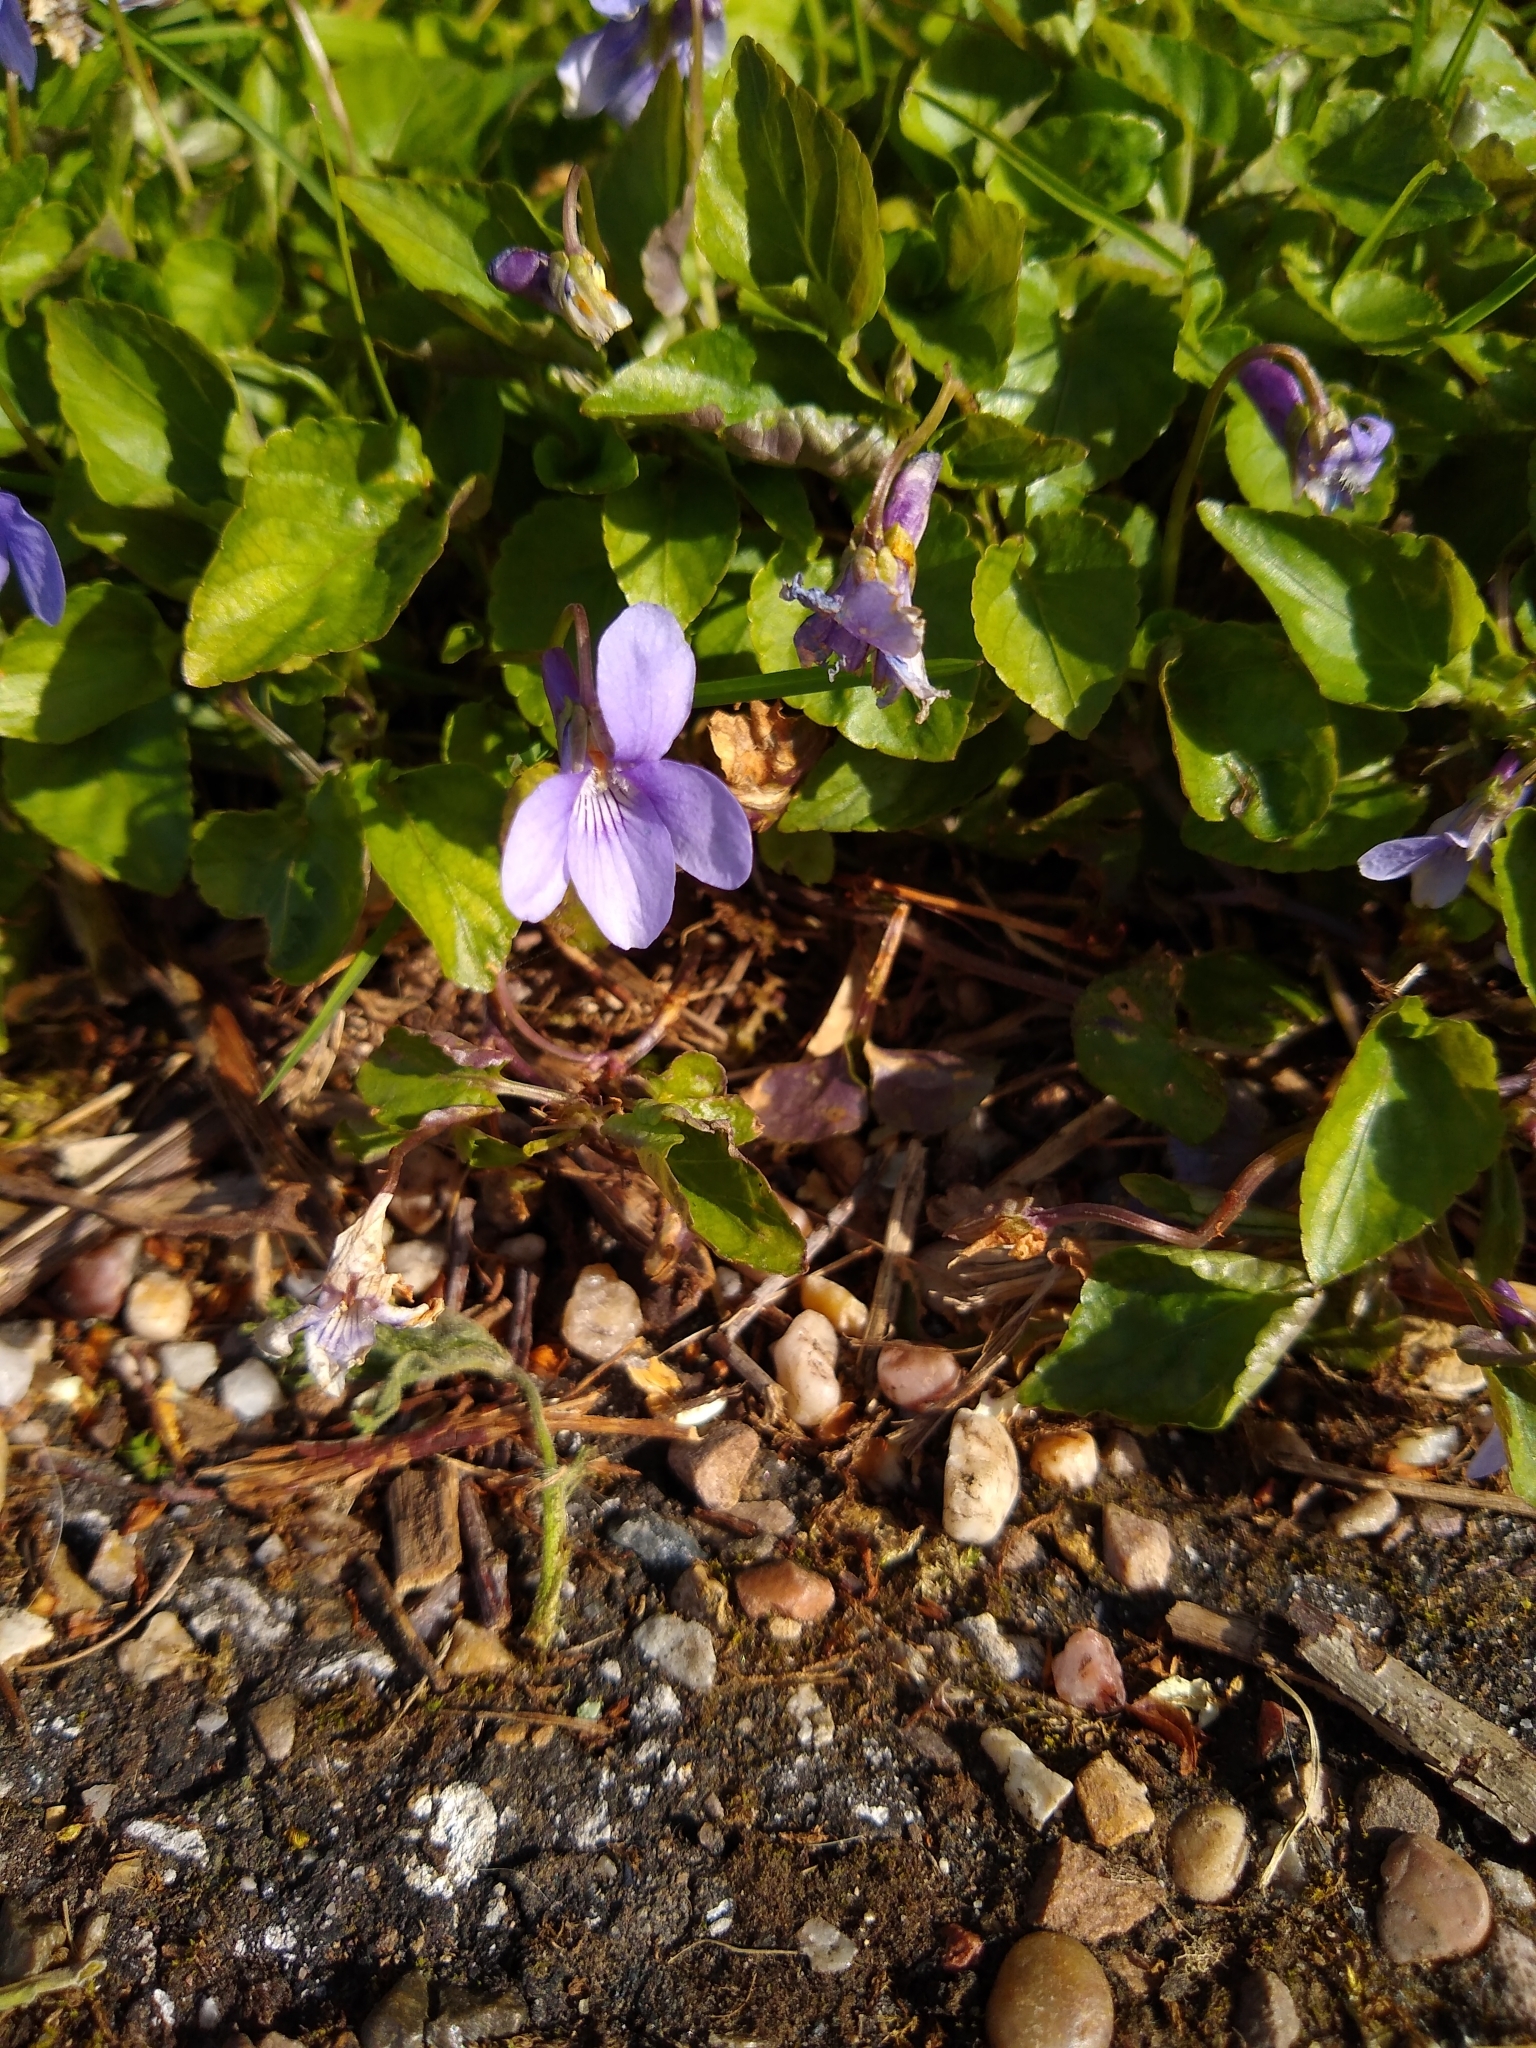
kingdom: Plantae
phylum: Tracheophyta
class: Magnoliopsida
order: Malpighiales
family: Violaceae
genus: Viola
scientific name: Viola reichenbachiana
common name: Early dog-violet
